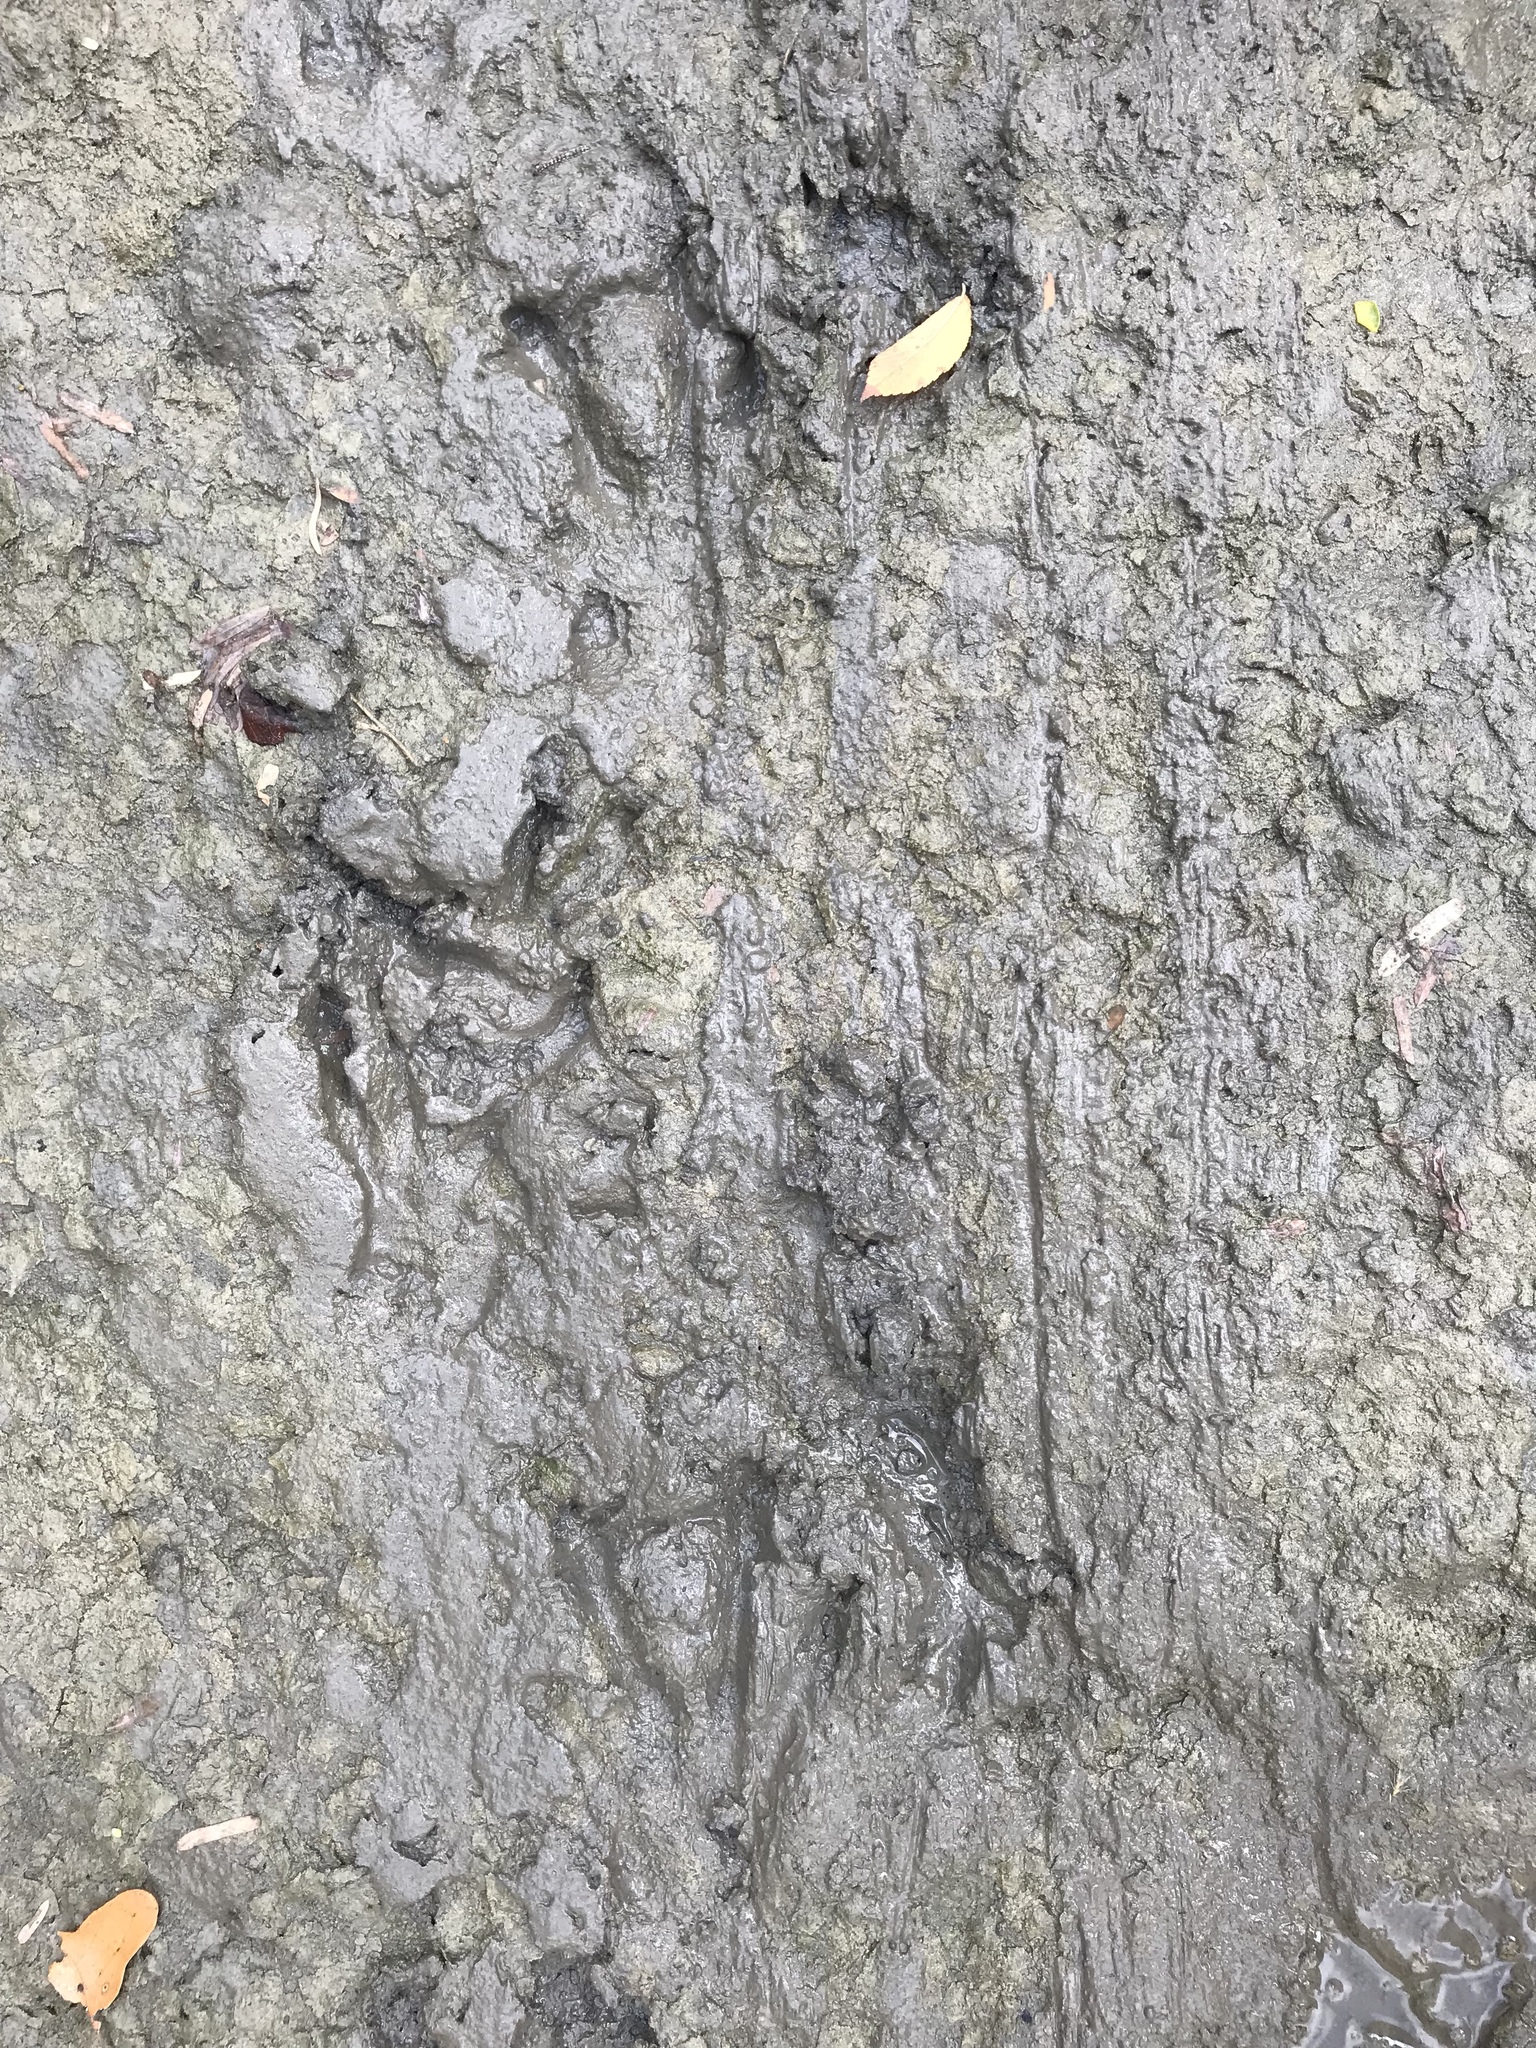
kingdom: Animalia
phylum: Chordata
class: Mammalia
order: Rodentia
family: Castoridae
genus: Castor
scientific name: Castor canadensis
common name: American beaver
